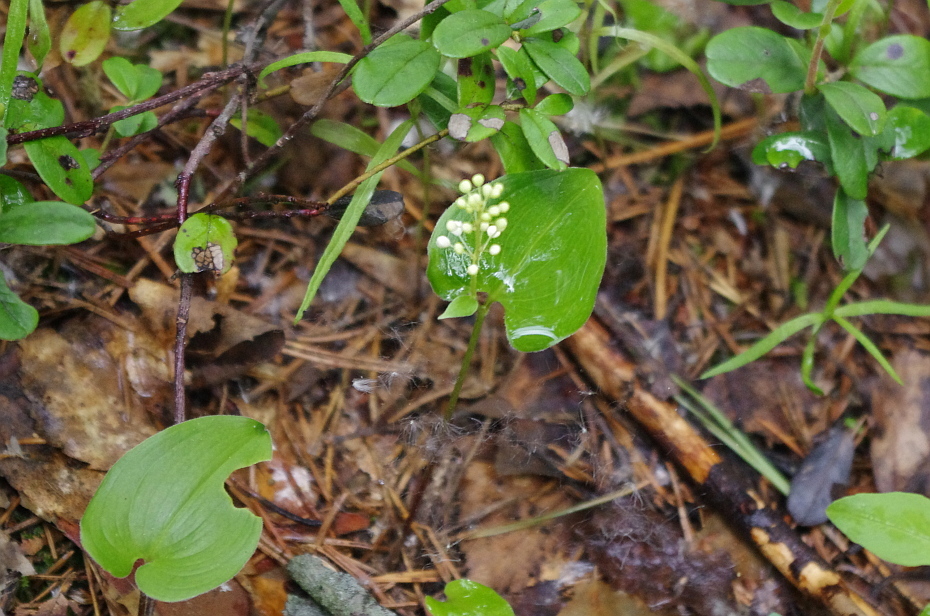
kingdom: Plantae
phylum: Tracheophyta
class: Liliopsida
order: Asparagales
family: Asparagaceae
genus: Maianthemum
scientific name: Maianthemum bifolium
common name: May lily
